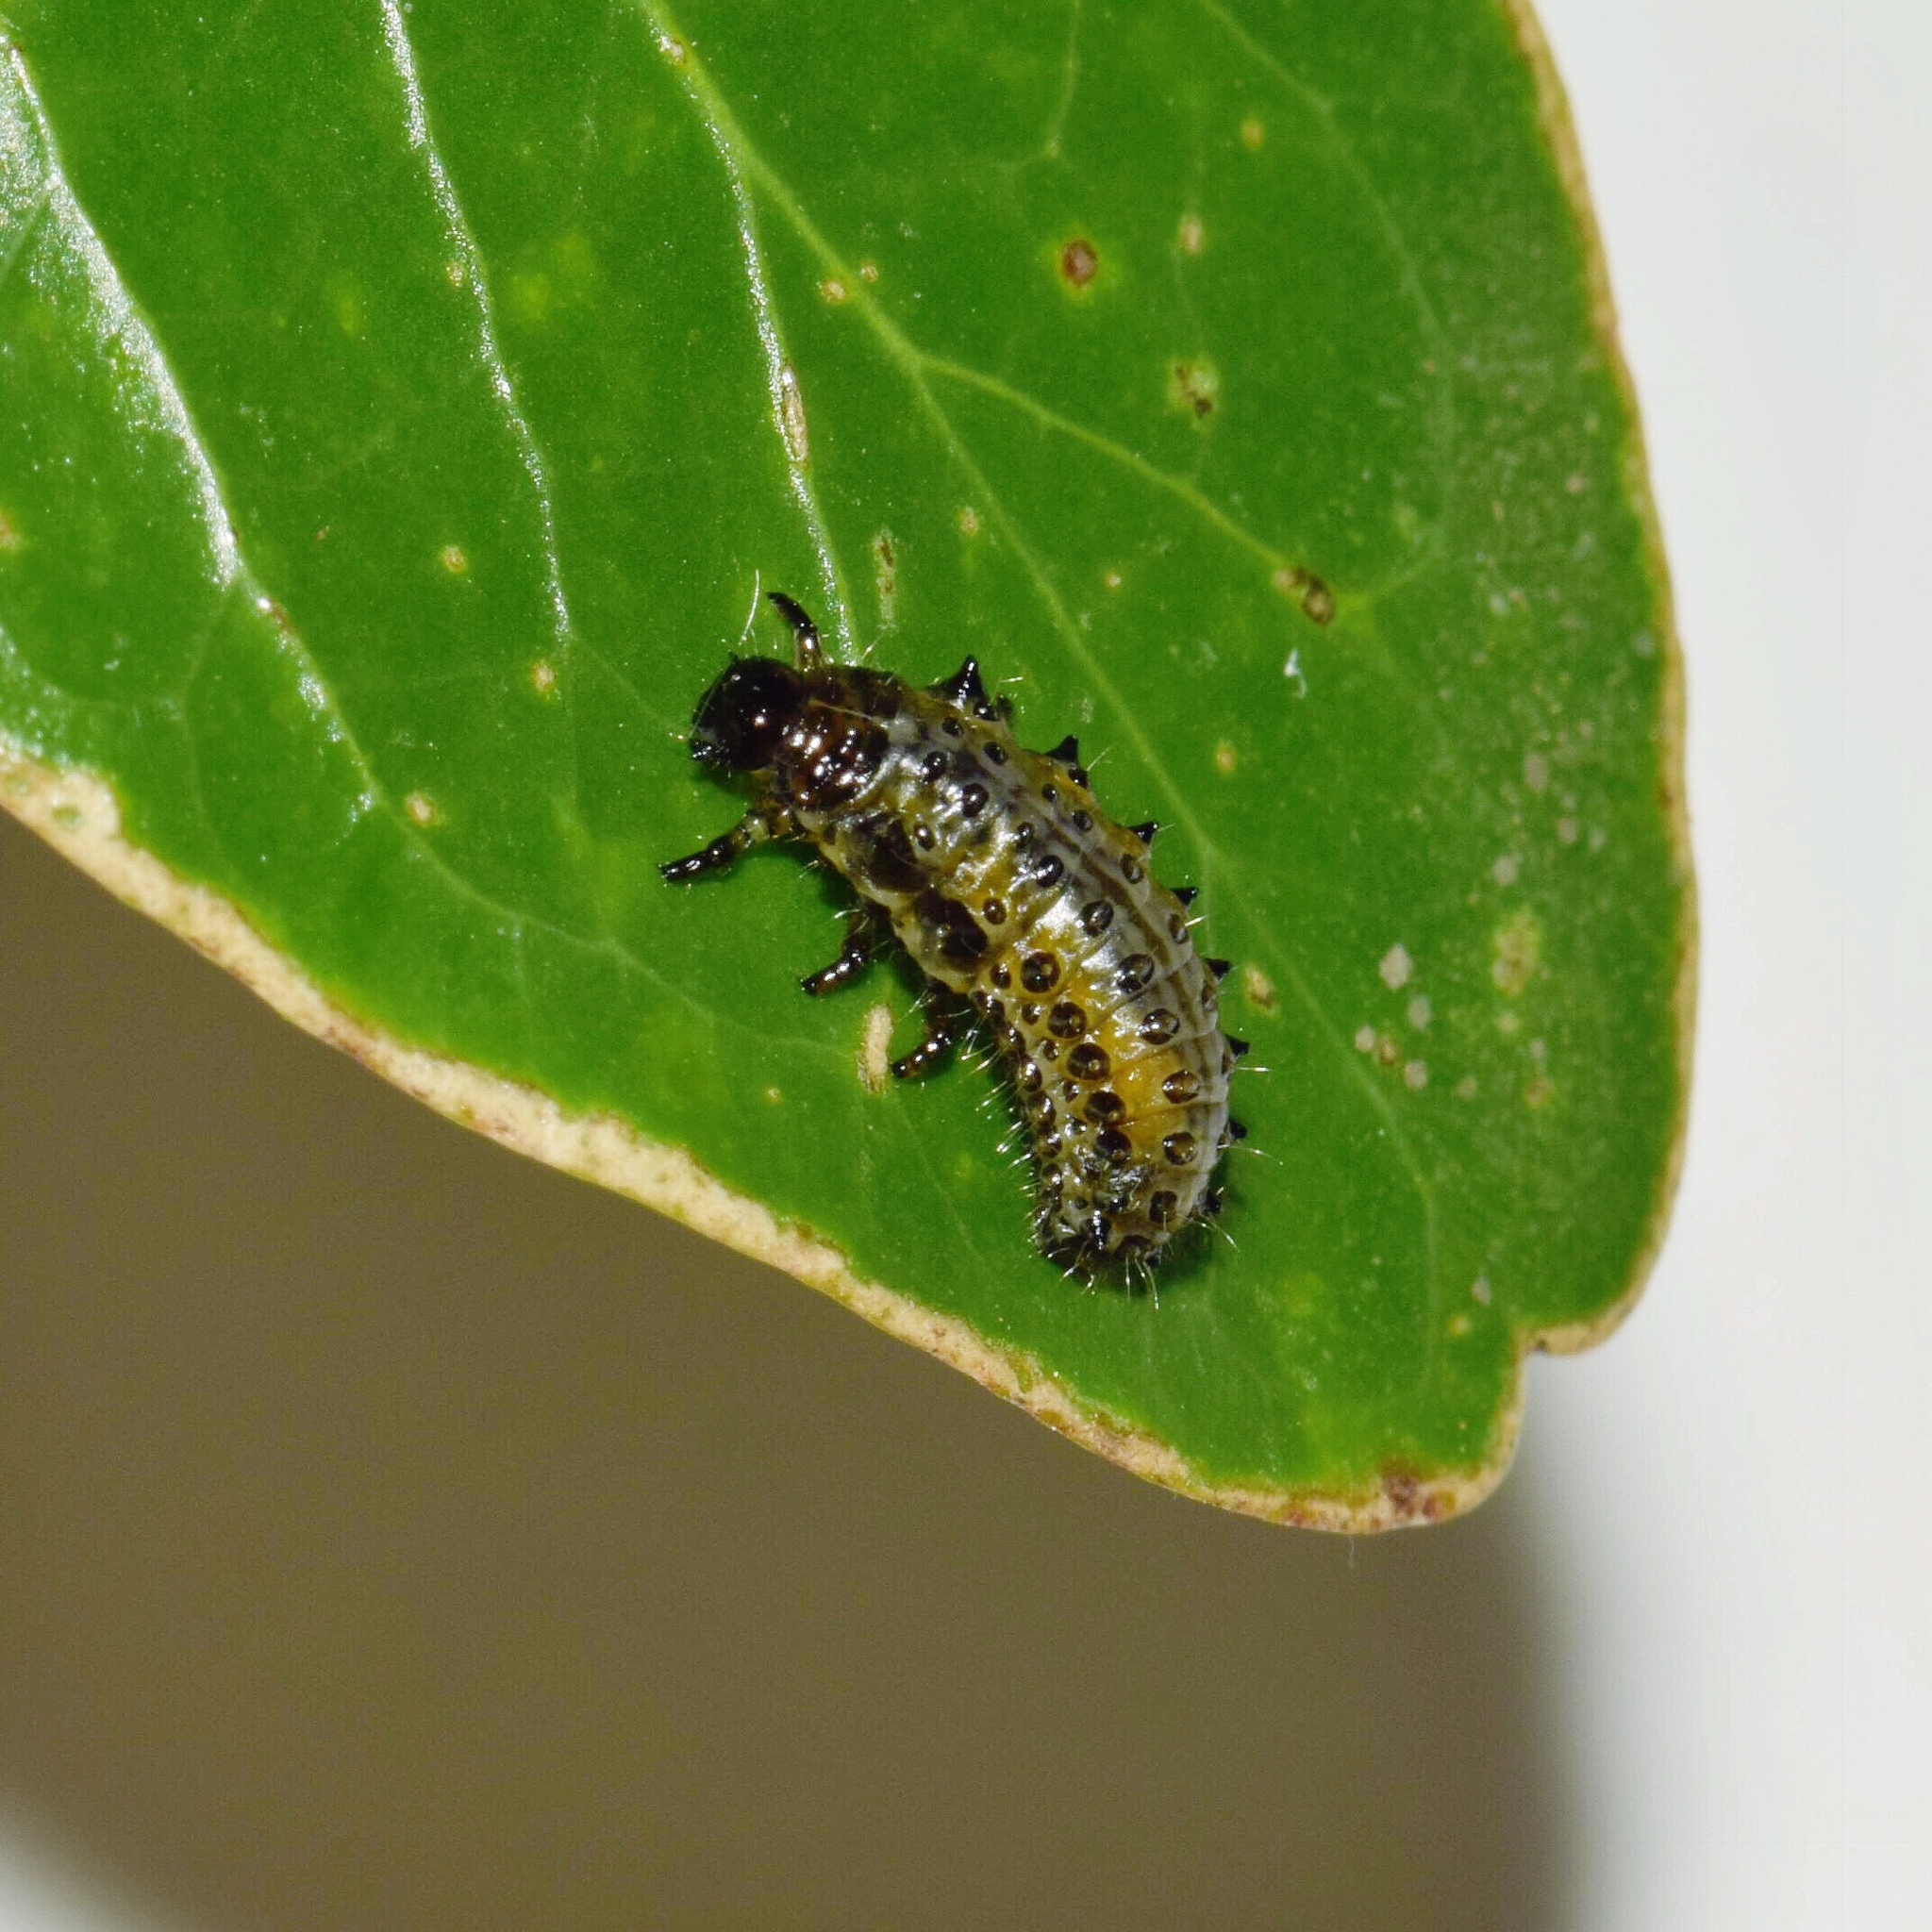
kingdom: Animalia
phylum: Arthropoda
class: Insecta
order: Coleoptera
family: Chrysomelidae
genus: Plagiosterna
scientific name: Plagiosterna
